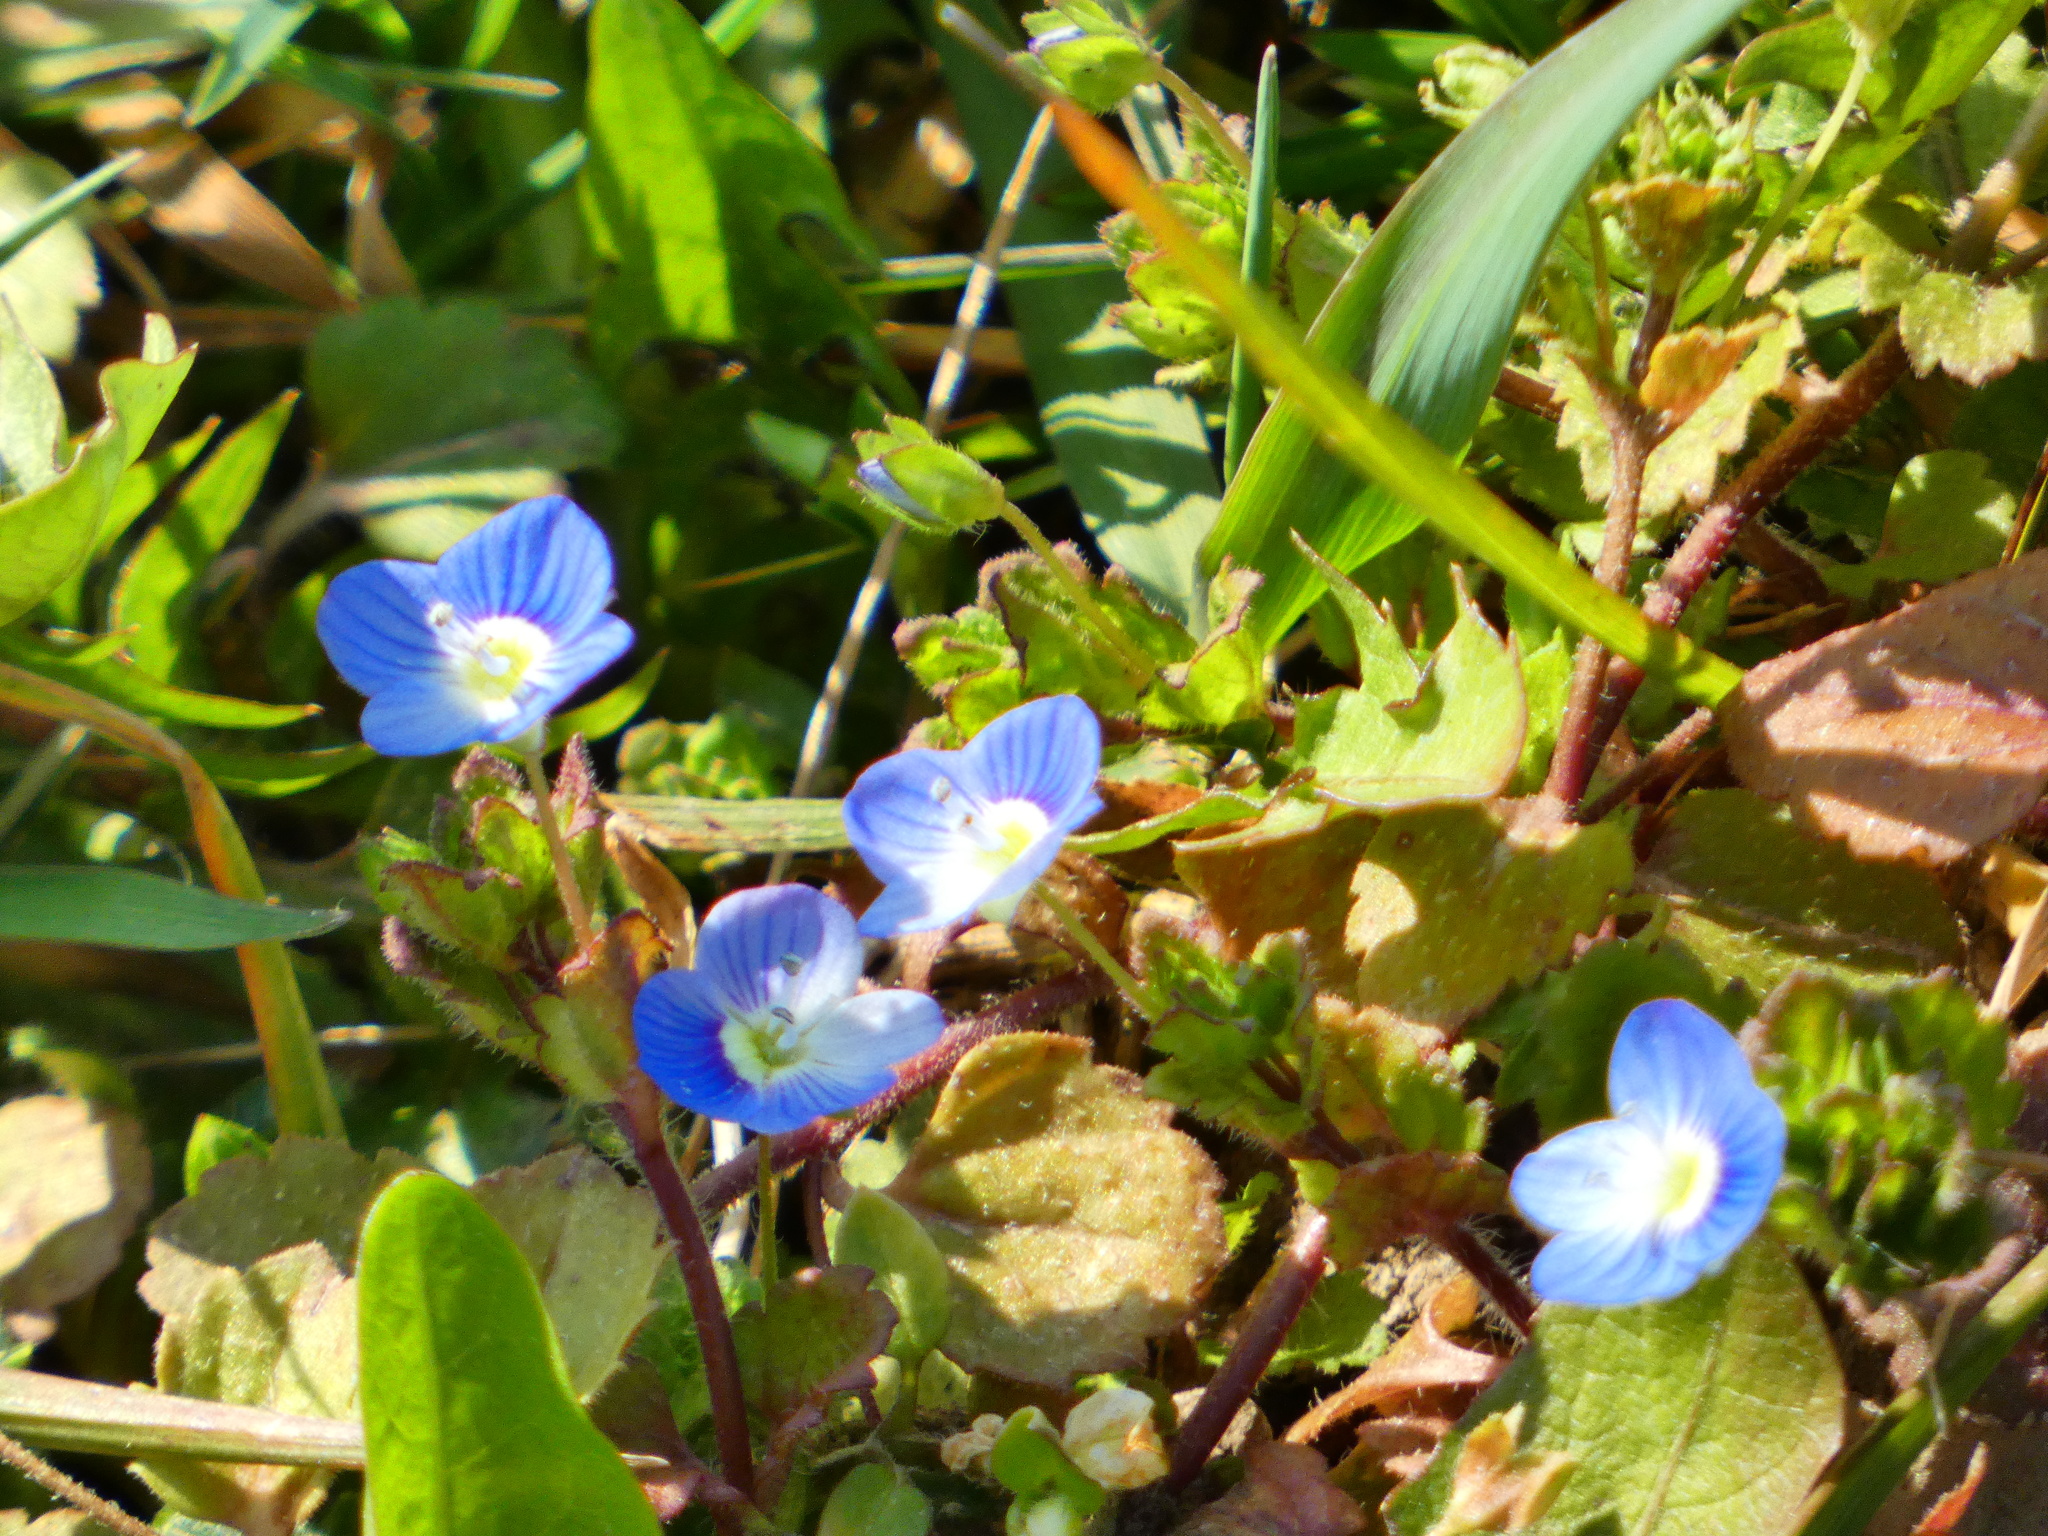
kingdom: Plantae
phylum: Tracheophyta
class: Magnoliopsida
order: Lamiales
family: Plantaginaceae
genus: Veronica
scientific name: Veronica persica
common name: Common field-speedwell
